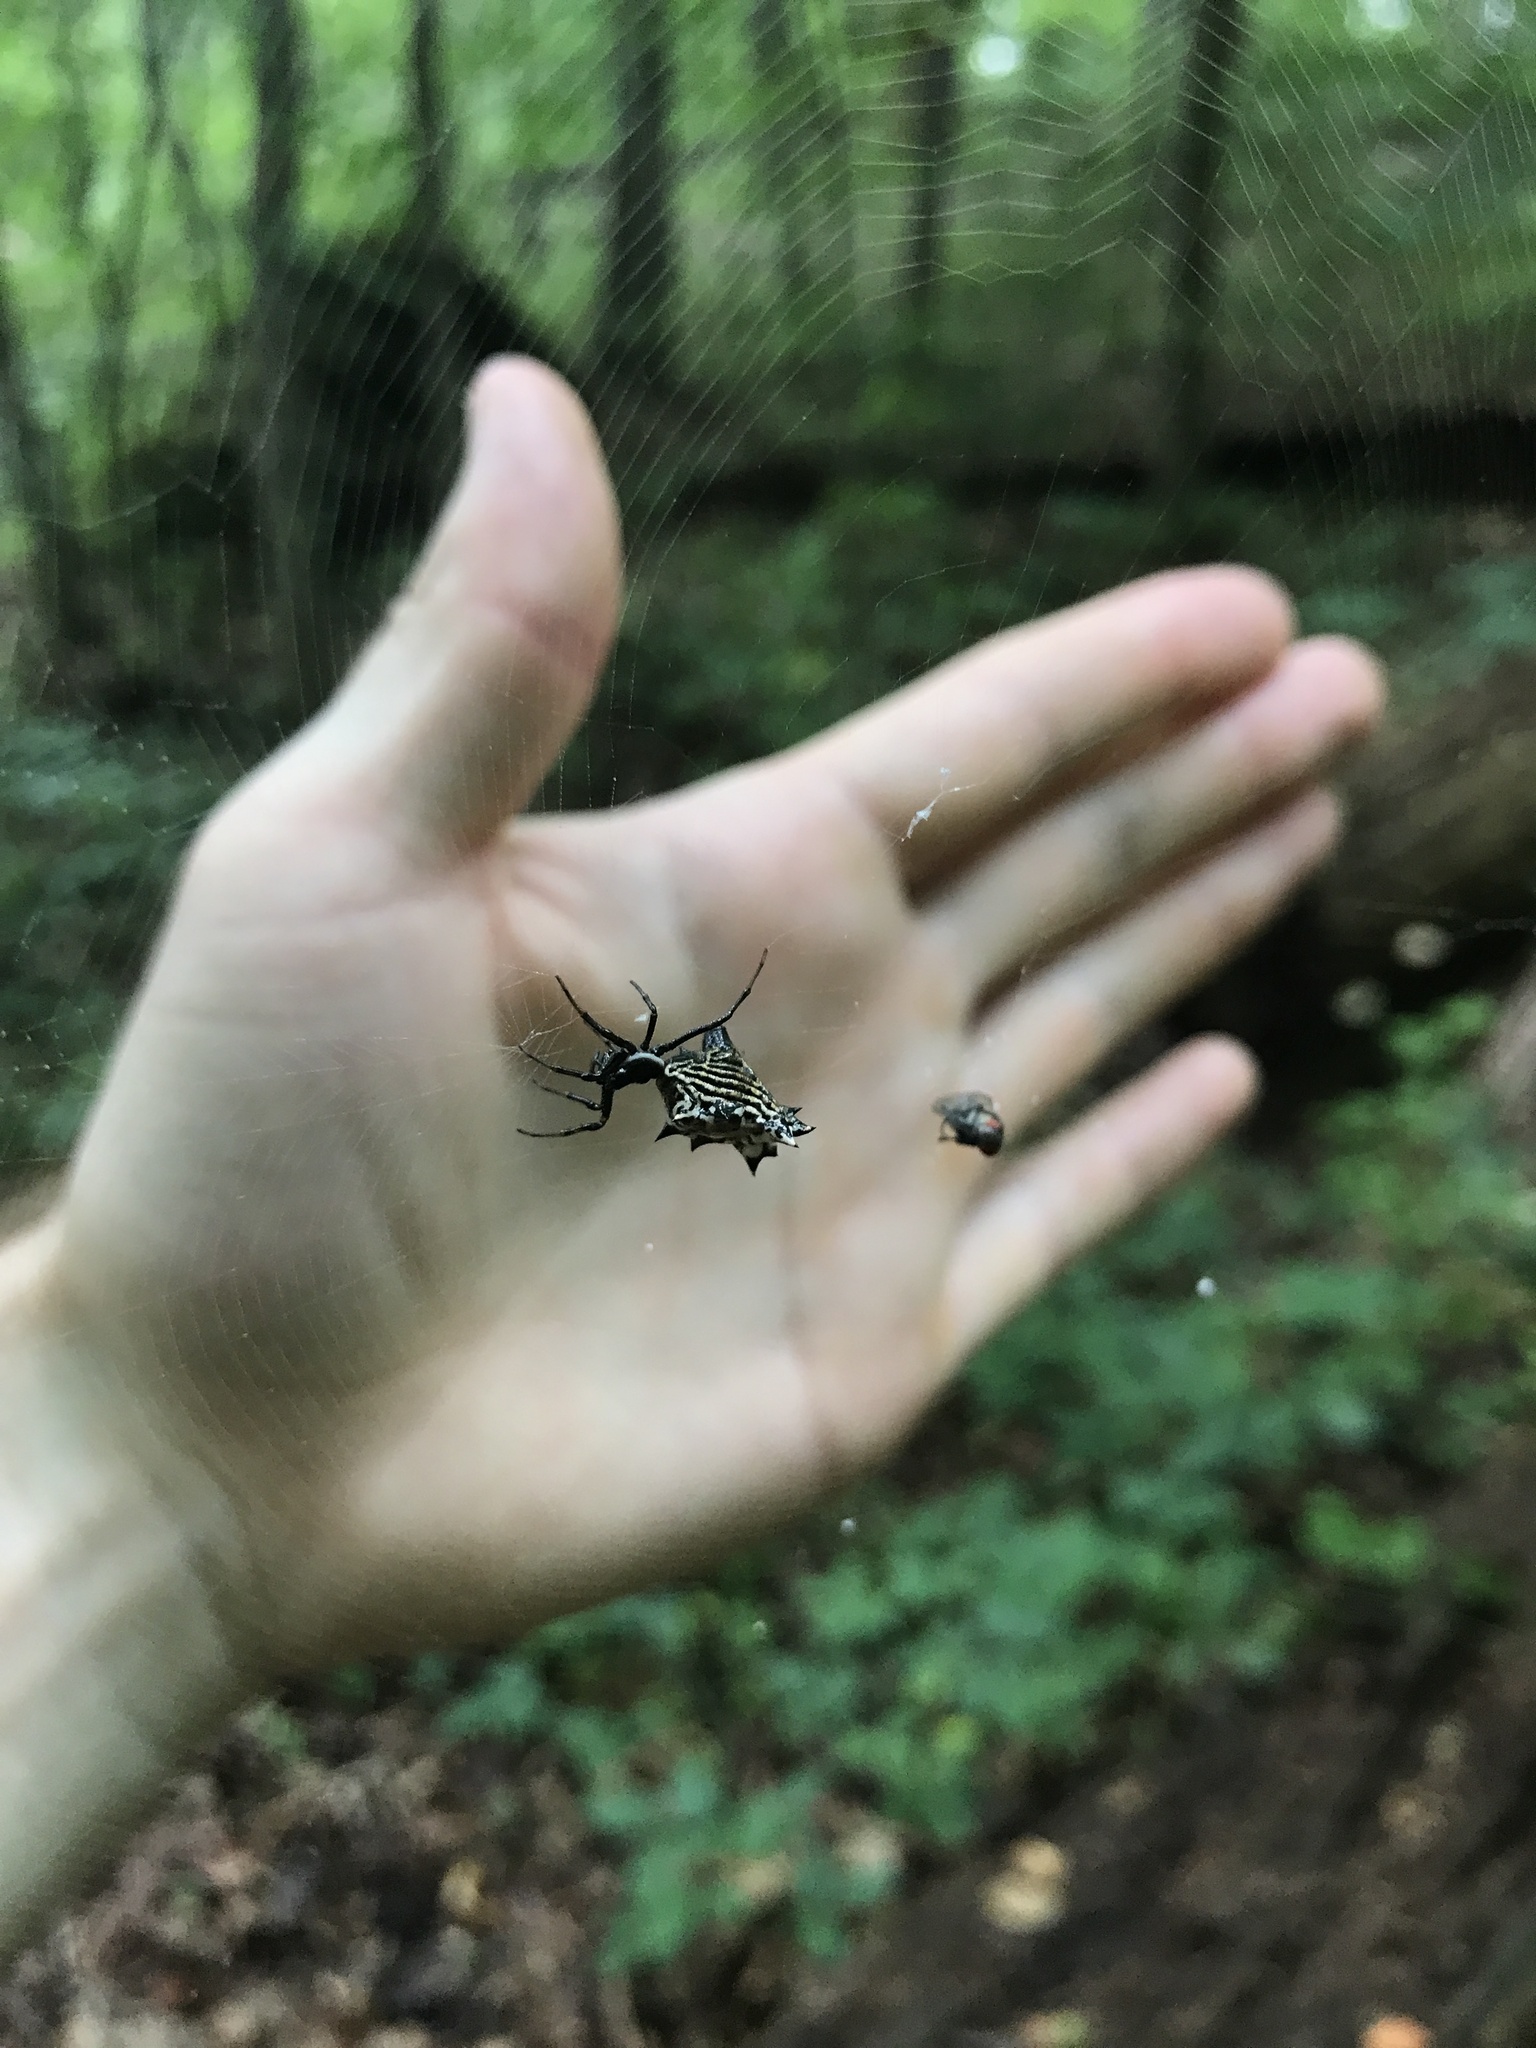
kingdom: Animalia
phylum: Arthropoda
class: Arachnida
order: Araneae
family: Araneidae
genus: Micrathena
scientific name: Micrathena gracilis
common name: Orb weavers
